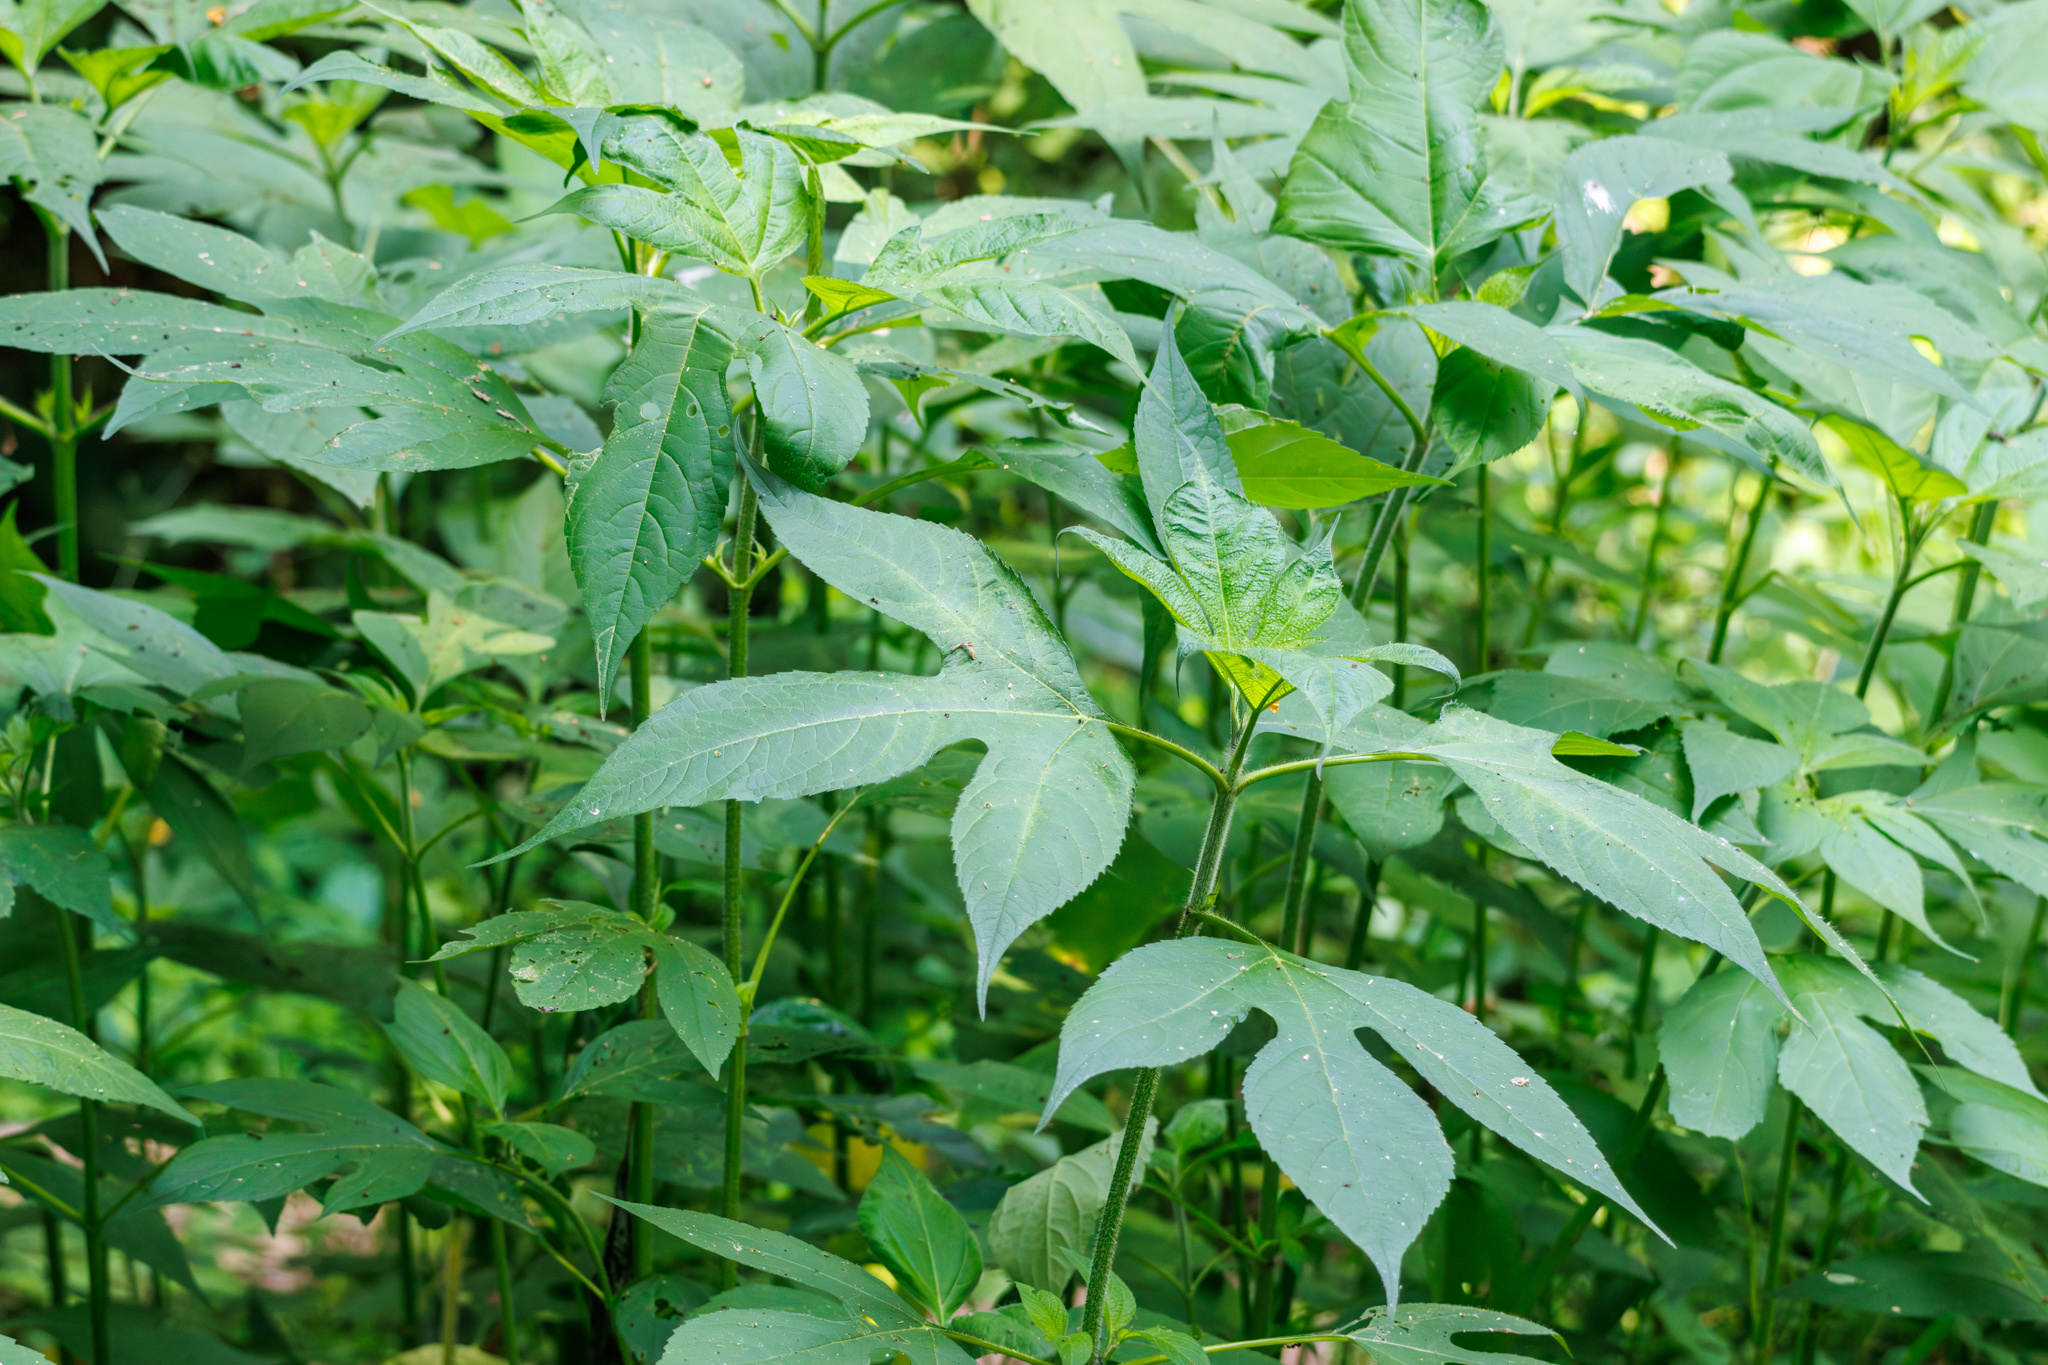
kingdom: Plantae
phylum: Tracheophyta
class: Magnoliopsida
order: Asterales
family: Asteraceae
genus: Ambrosia
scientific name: Ambrosia trifida
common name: Giant ragweed
